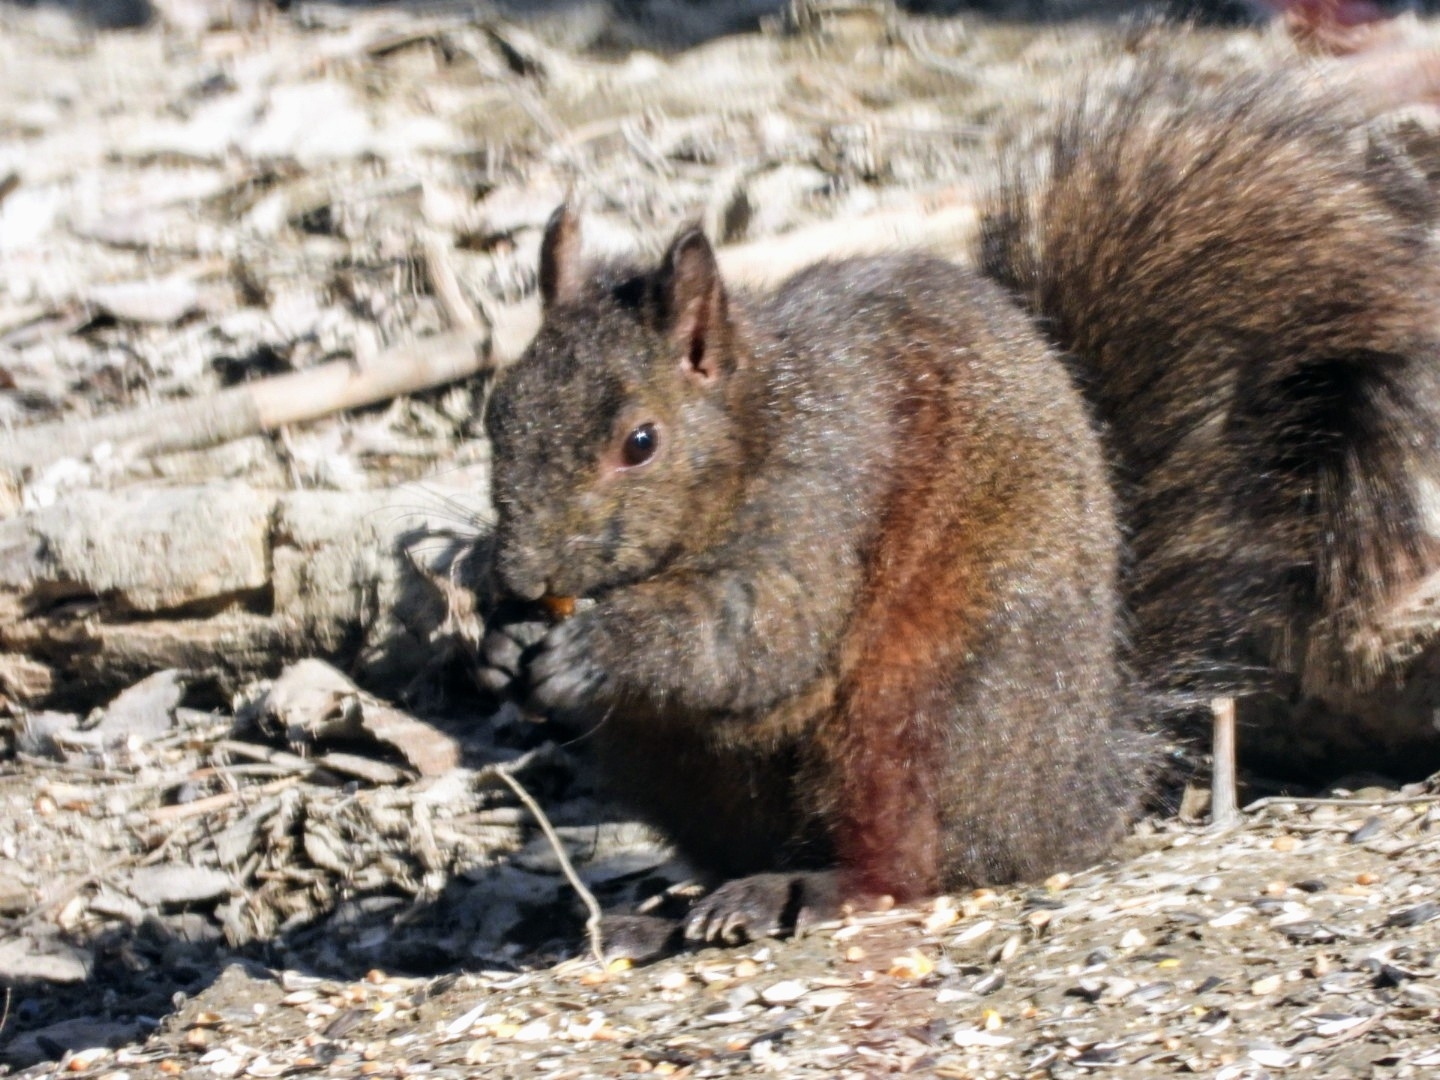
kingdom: Animalia
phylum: Chordata
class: Mammalia
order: Rodentia
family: Sciuridae
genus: Sciurus
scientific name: Sciurus carolinensis
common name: Eastern gray squirrel
